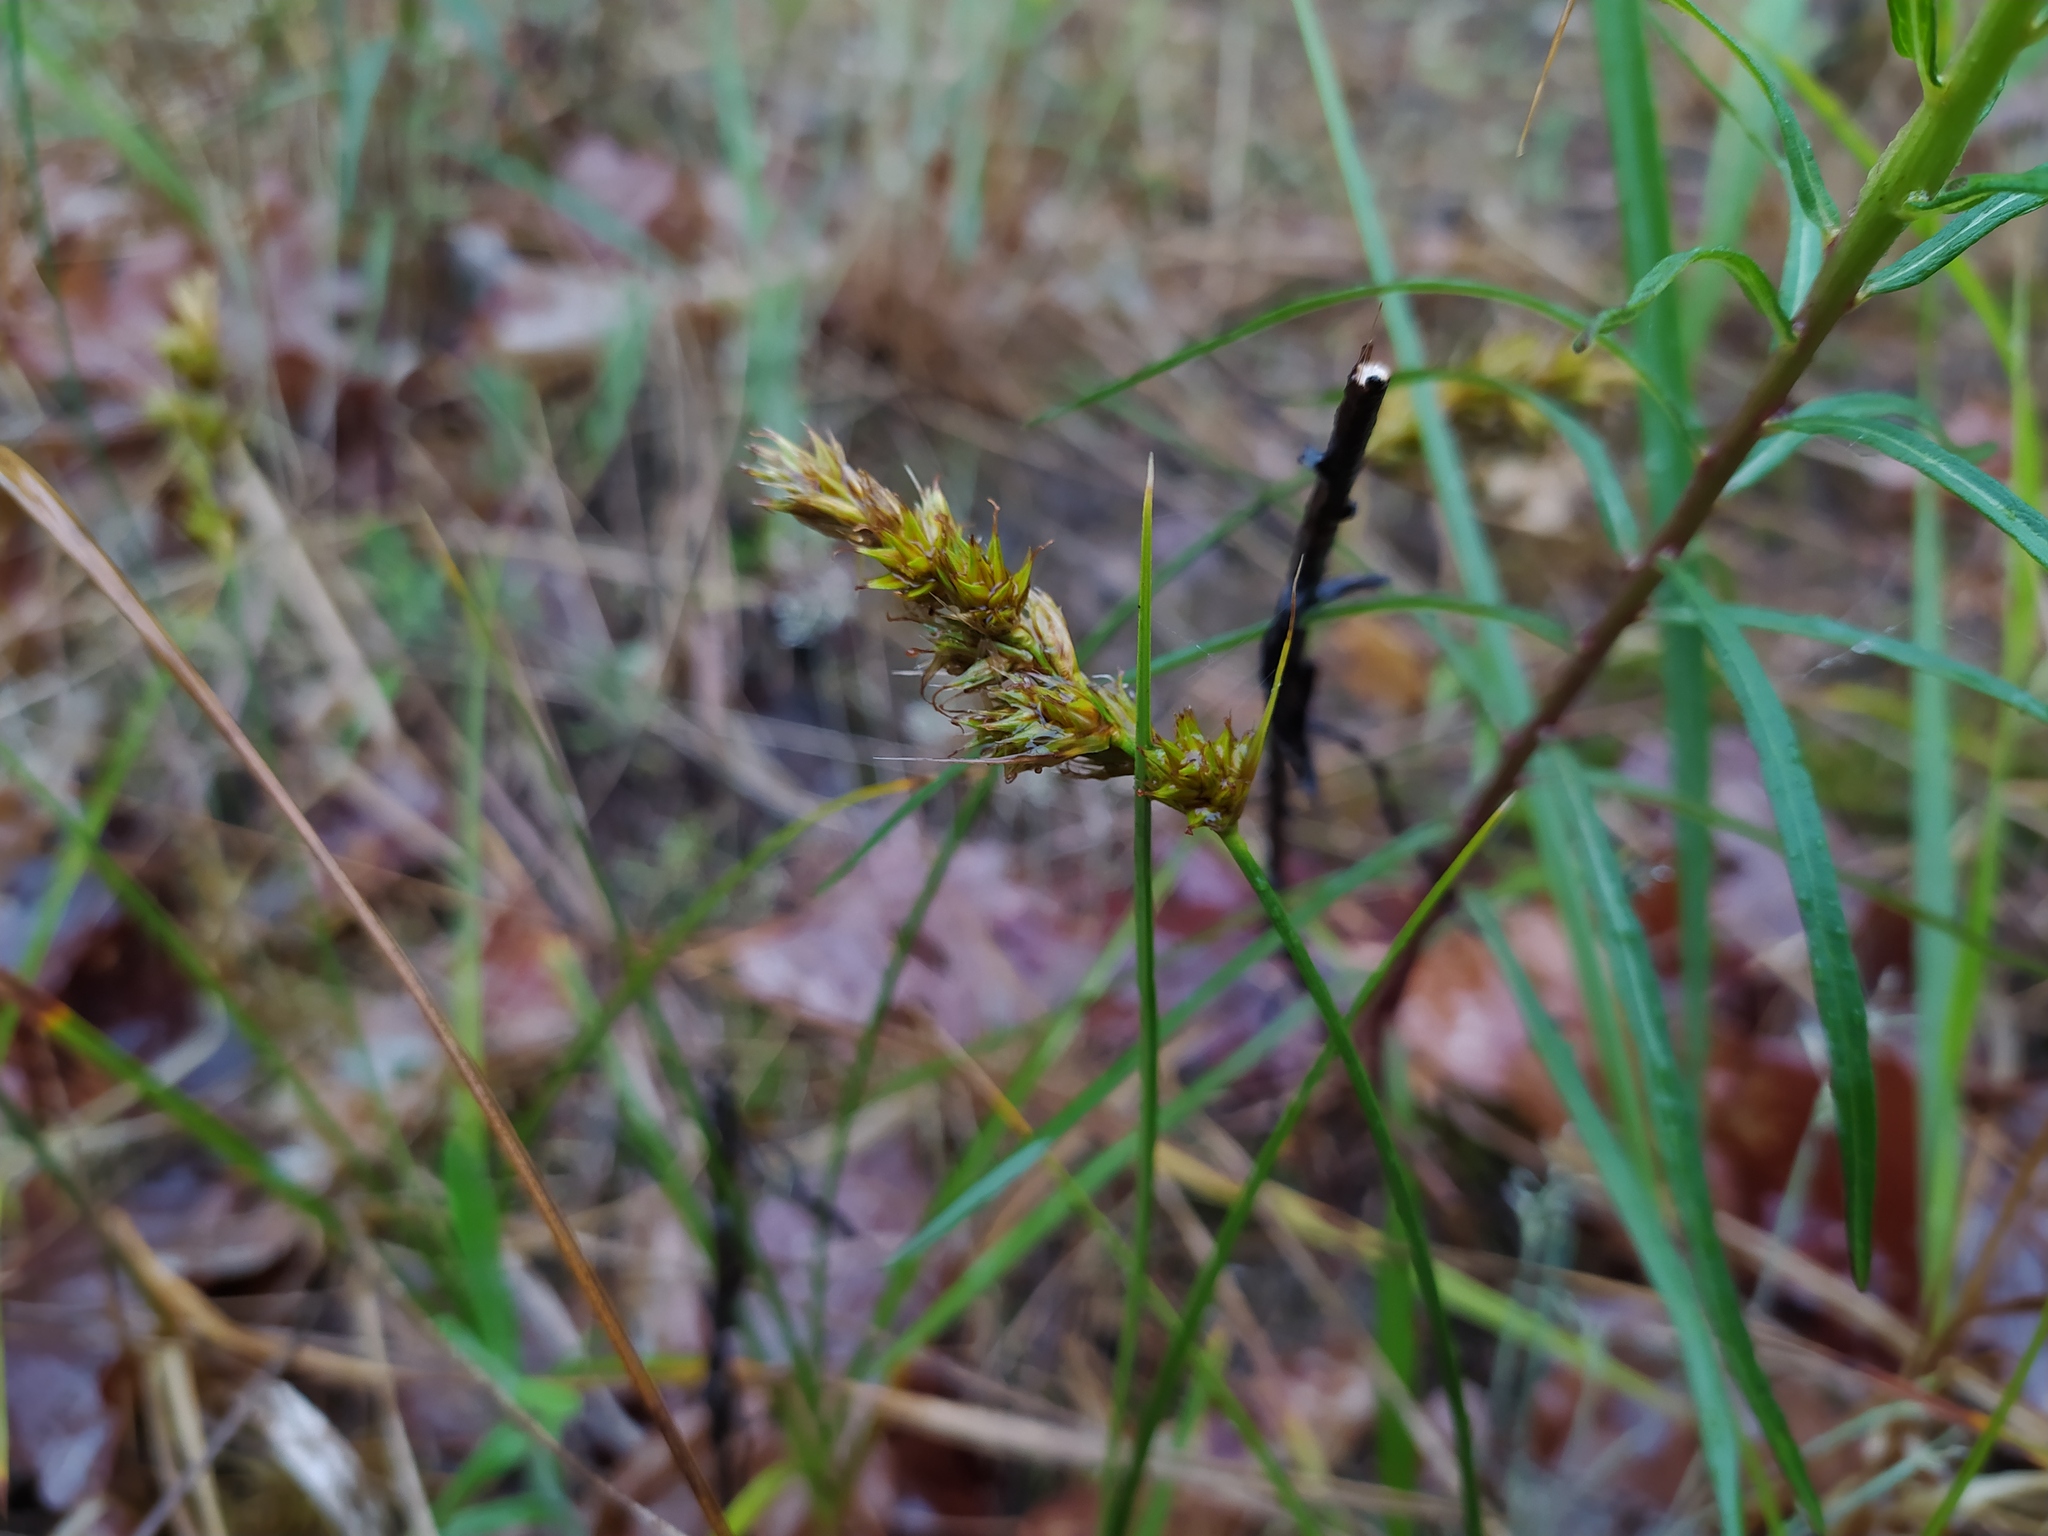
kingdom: Plantae
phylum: Tracheophyta
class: Liliopsida
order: Poales
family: Cyperaceae
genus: Carex
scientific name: Carex arenaria
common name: Sand sedge
